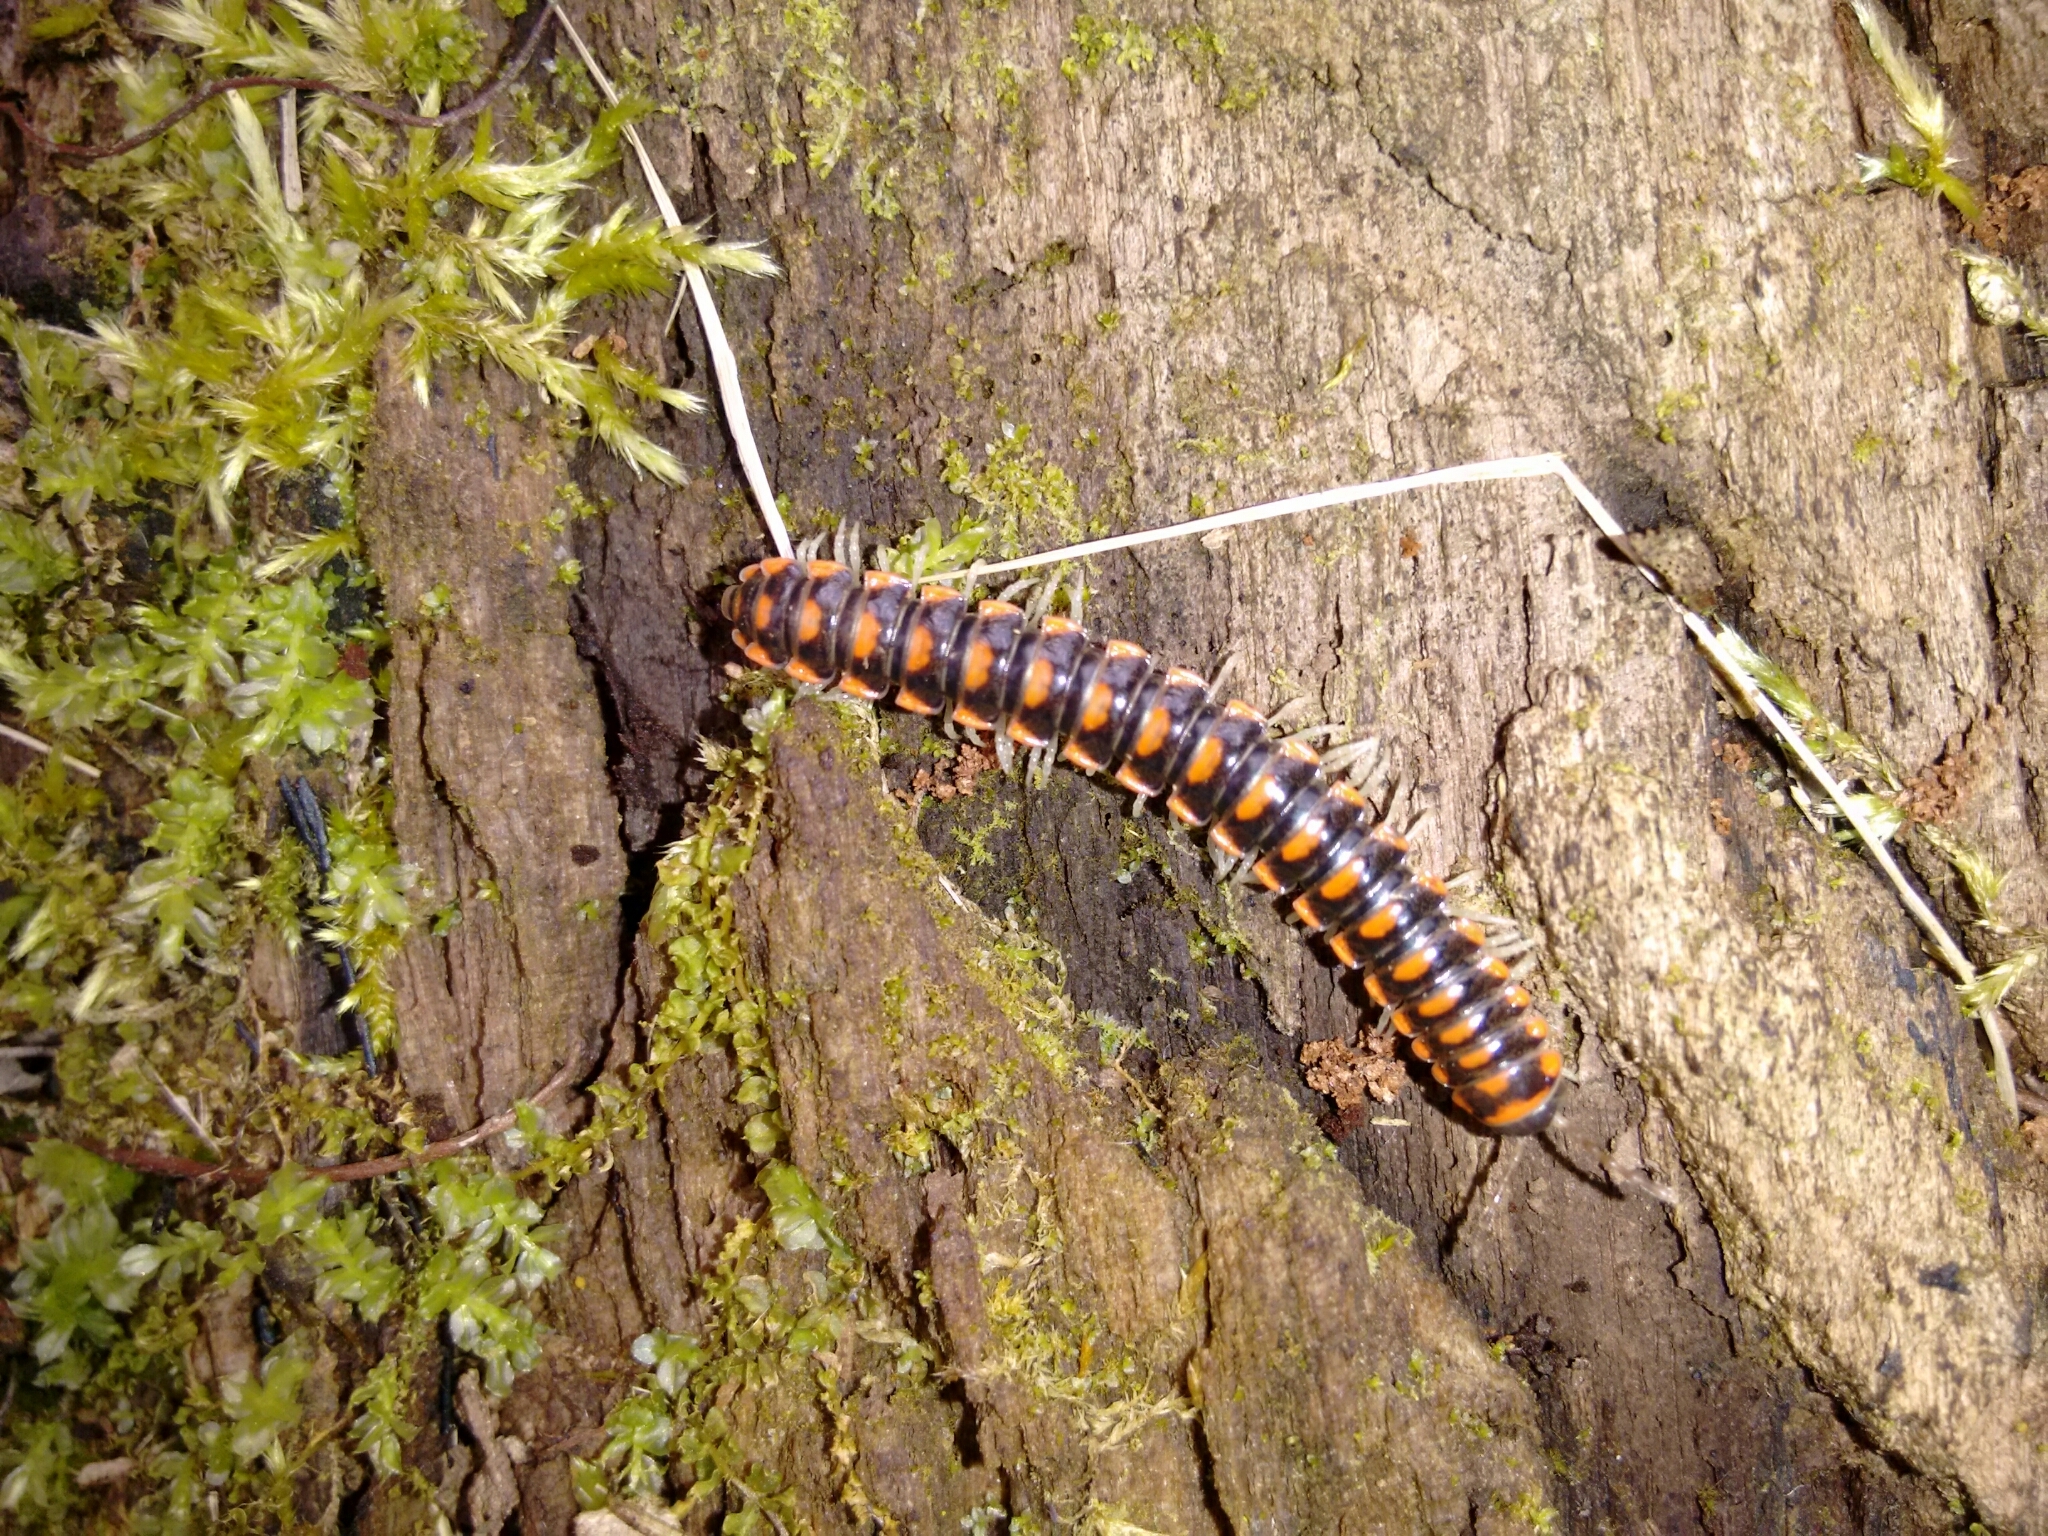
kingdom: Animalia
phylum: Arthropoda
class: Diplopoda
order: Polydesmida
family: Xystodesmidae
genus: Euryurus
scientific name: Euryurus evides
